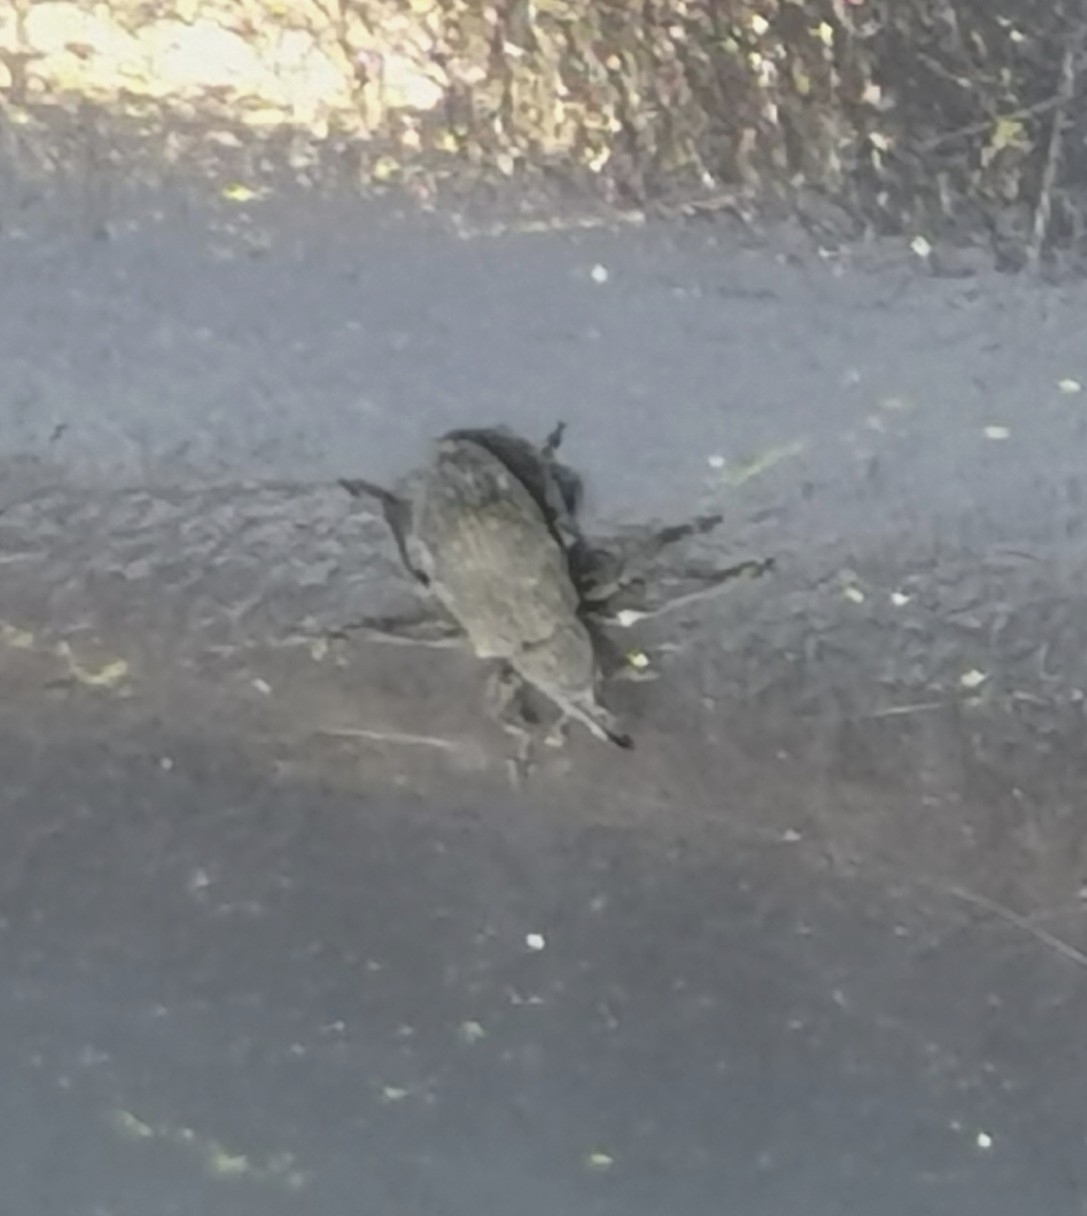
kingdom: Animalia
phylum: Arthropoda
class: Insecta
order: Coleoptera
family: Brentidae
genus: Betulapion
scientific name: Betulapion simile
